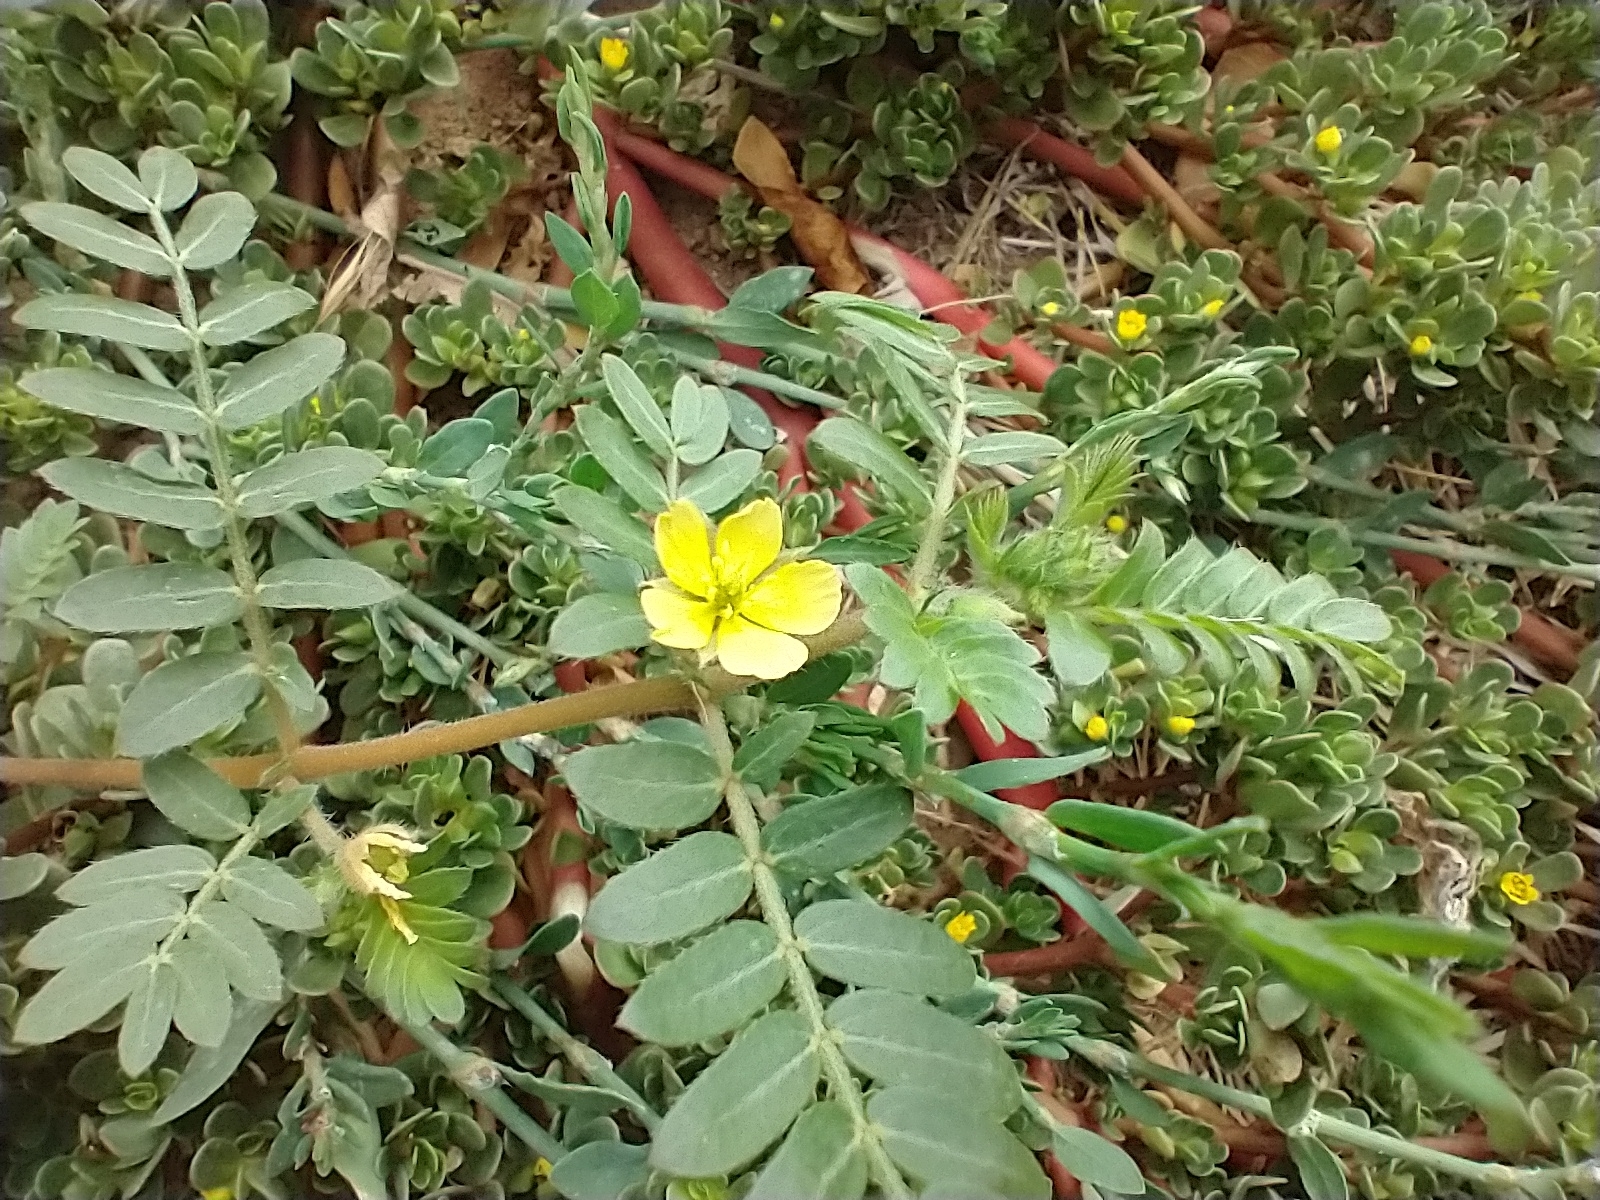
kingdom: Plantae
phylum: Tracheophyta
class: Magnoliopsida
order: Zygophyllales
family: Zygophyllaceae
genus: Tribulus
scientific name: Tribulus terrestris
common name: Puncturevine
